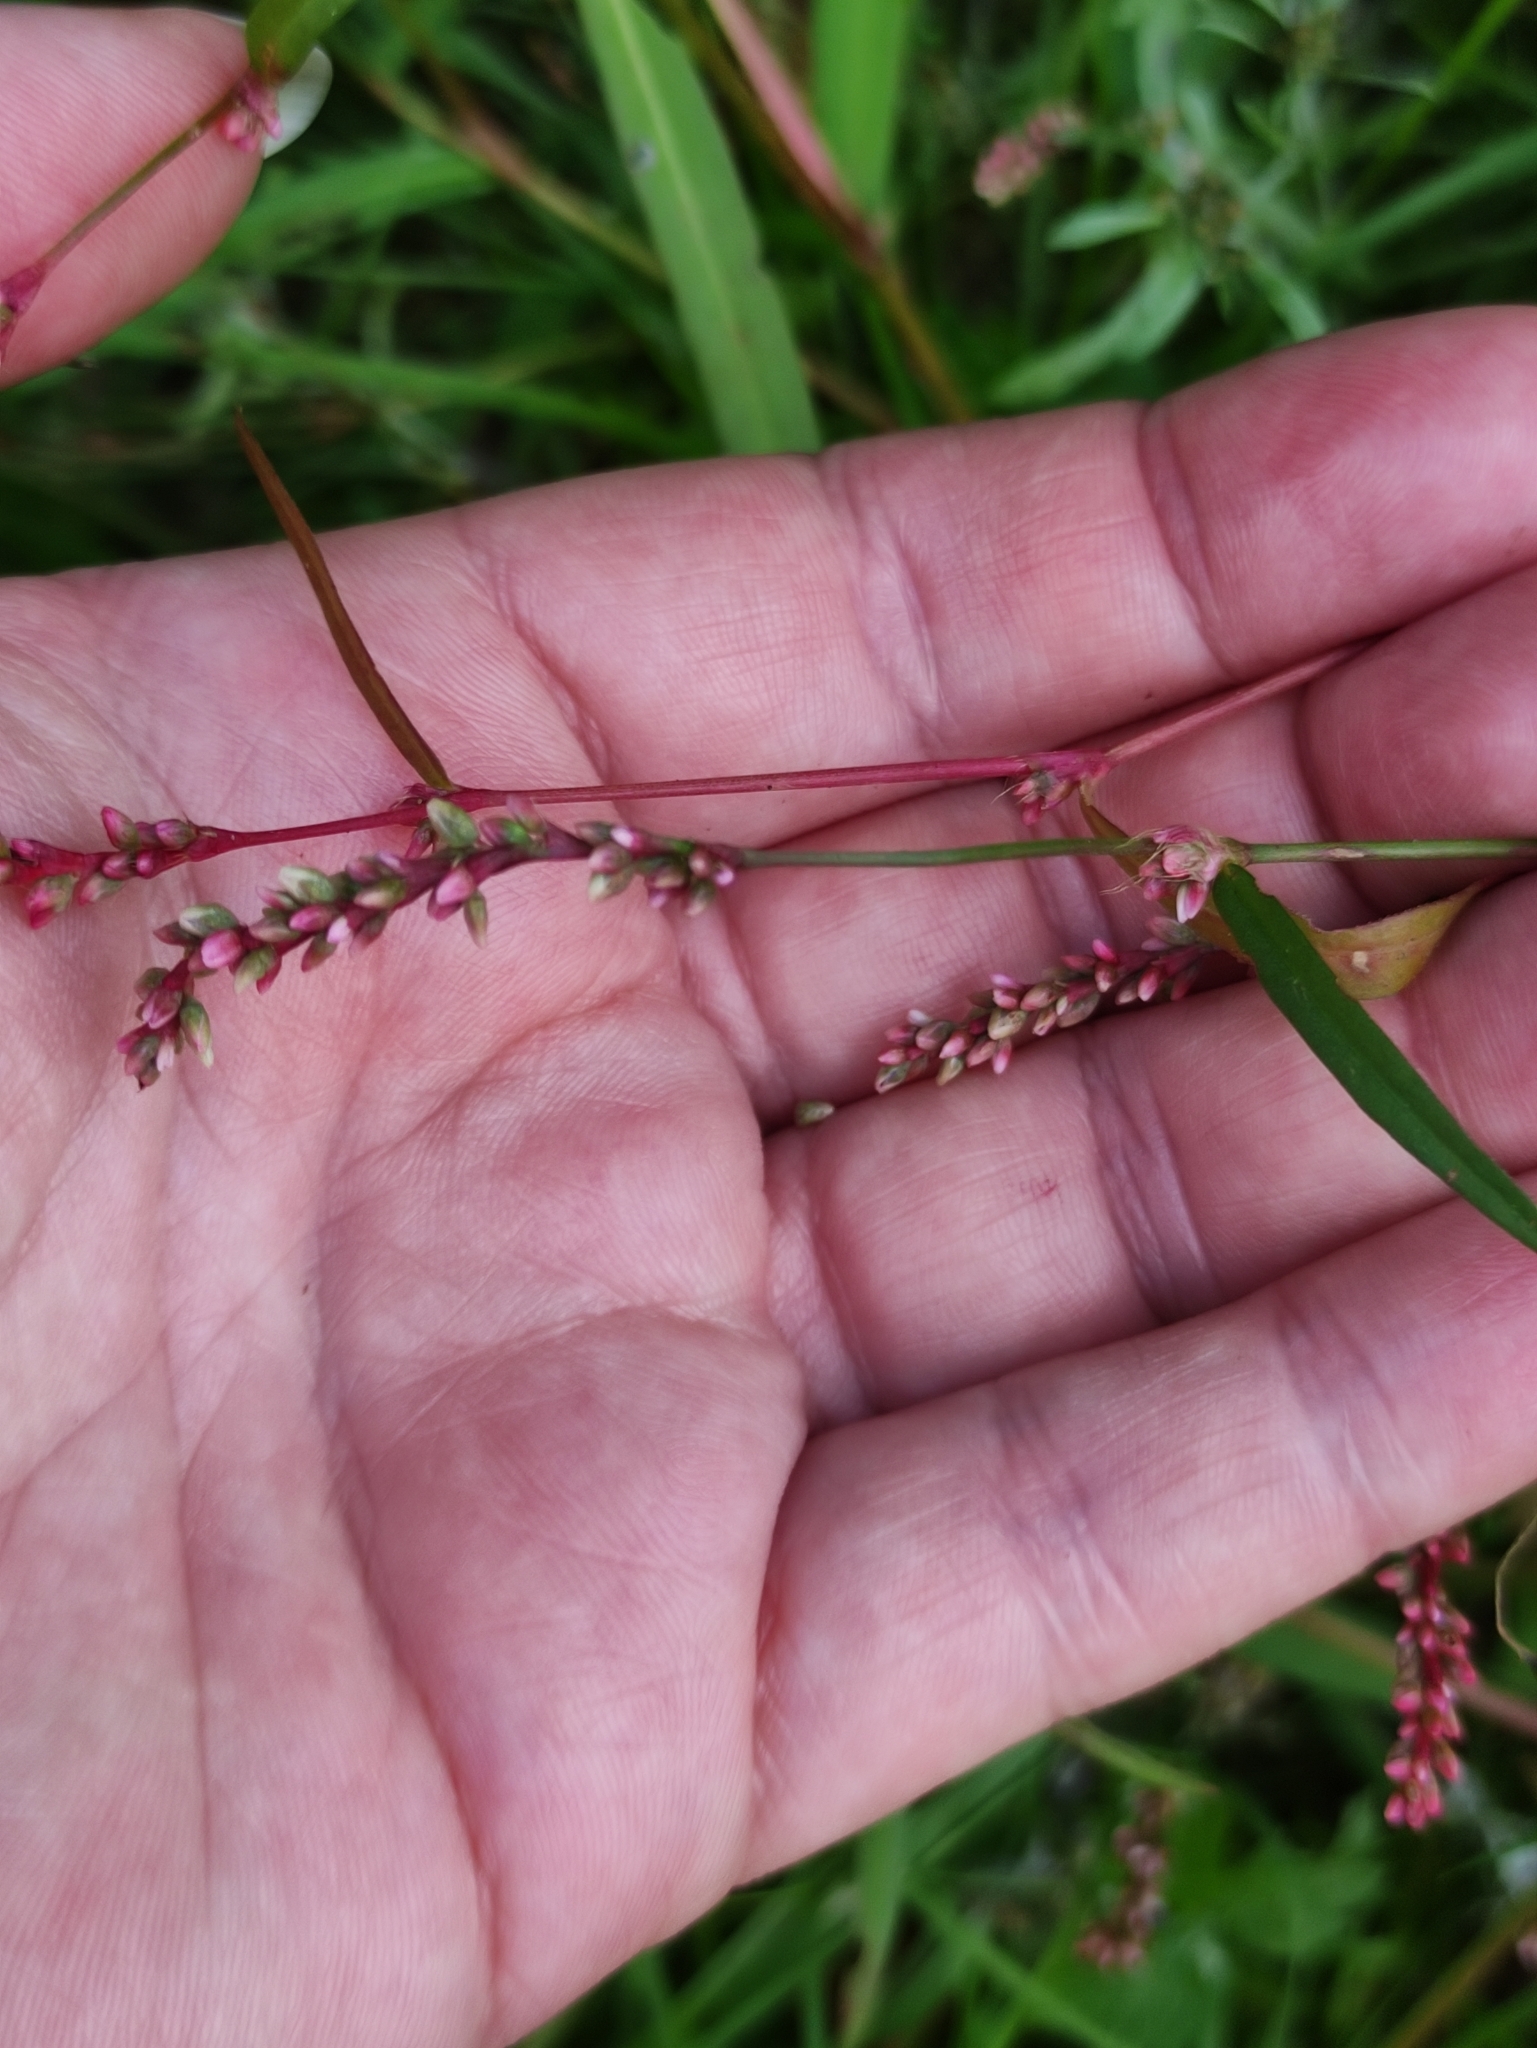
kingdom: Plantae
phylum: Tracheophyta
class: Magnoliopsida
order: Caryophyllales
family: Polygonaceae
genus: Persicaria
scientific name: Persicaria minor
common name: Small water-pepper
